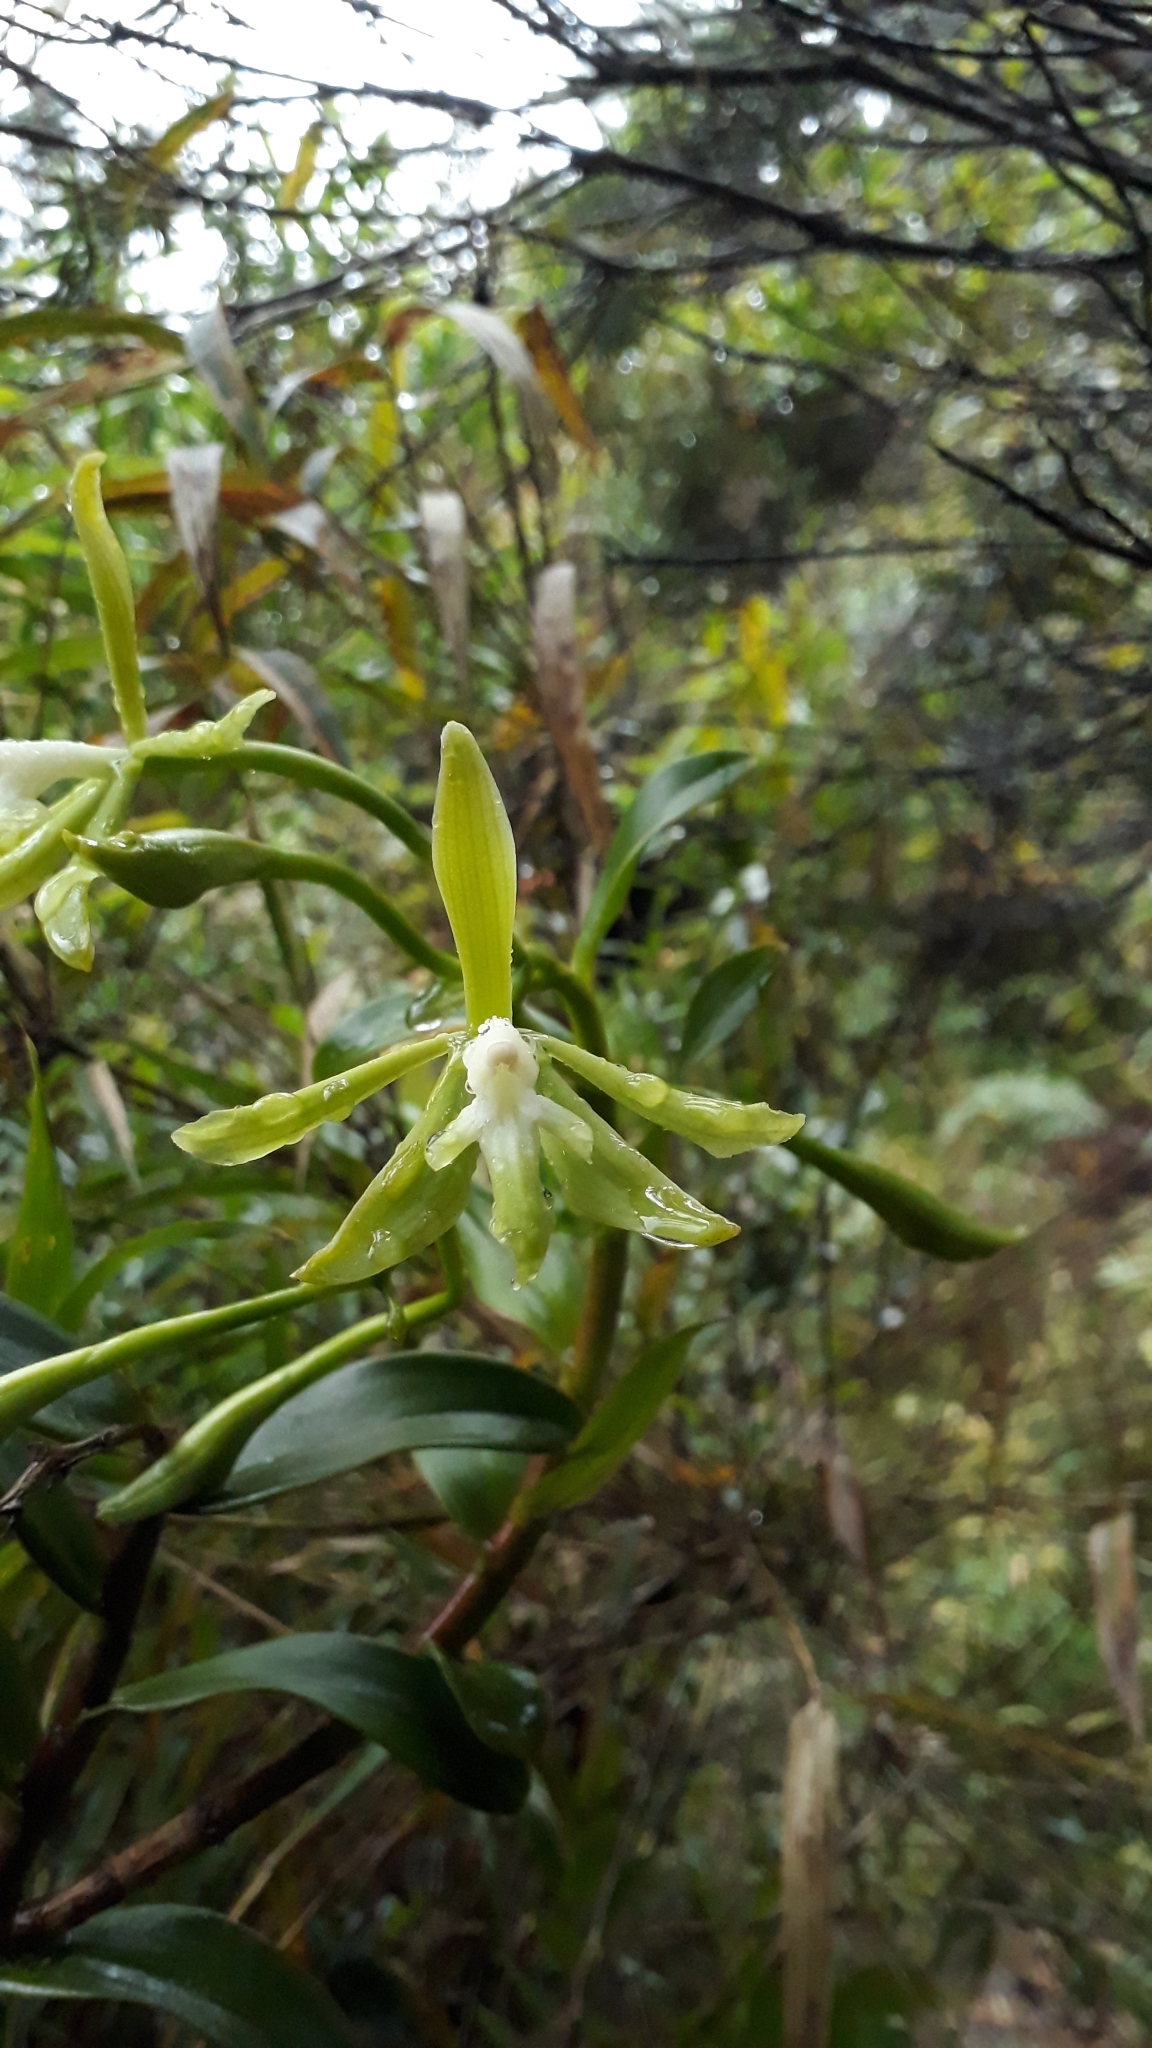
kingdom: Plantae
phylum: Tracheophyta
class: Liliopsida
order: Asparagales
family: Orchidaceae
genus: Epidendrum
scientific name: Epidendrum steyermarkii
